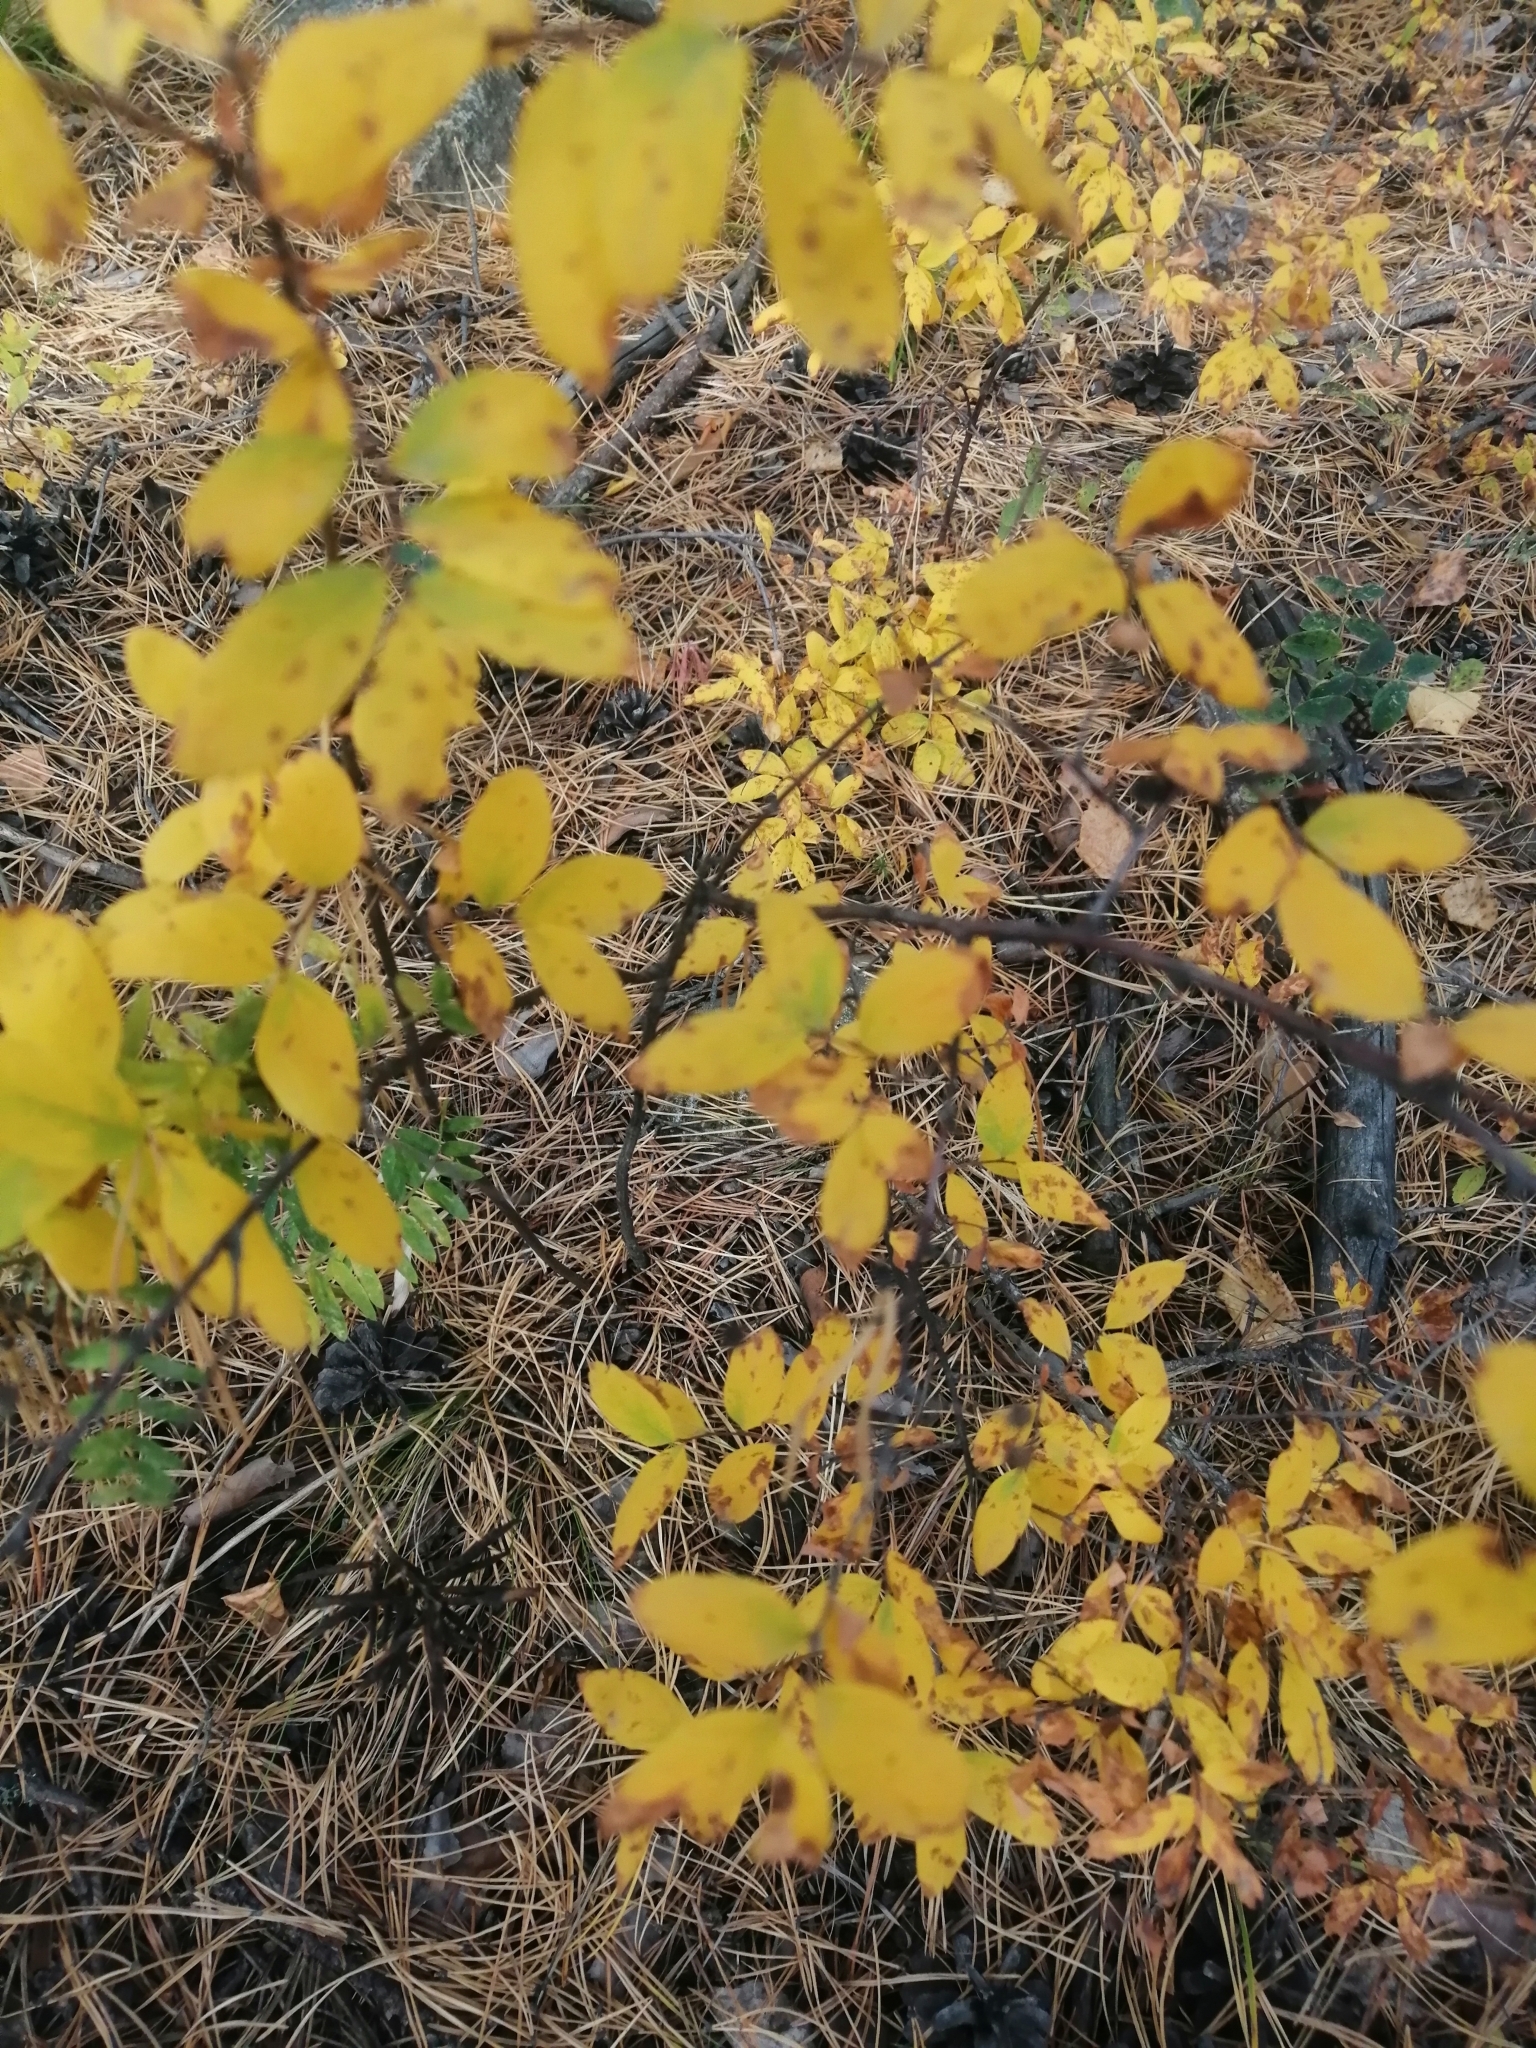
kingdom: Plantae
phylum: Tracheophyta
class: Magnoliopsida
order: Rosales
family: Rosaceae
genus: Spiraea
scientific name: Spiraea media
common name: Russian spiraea
